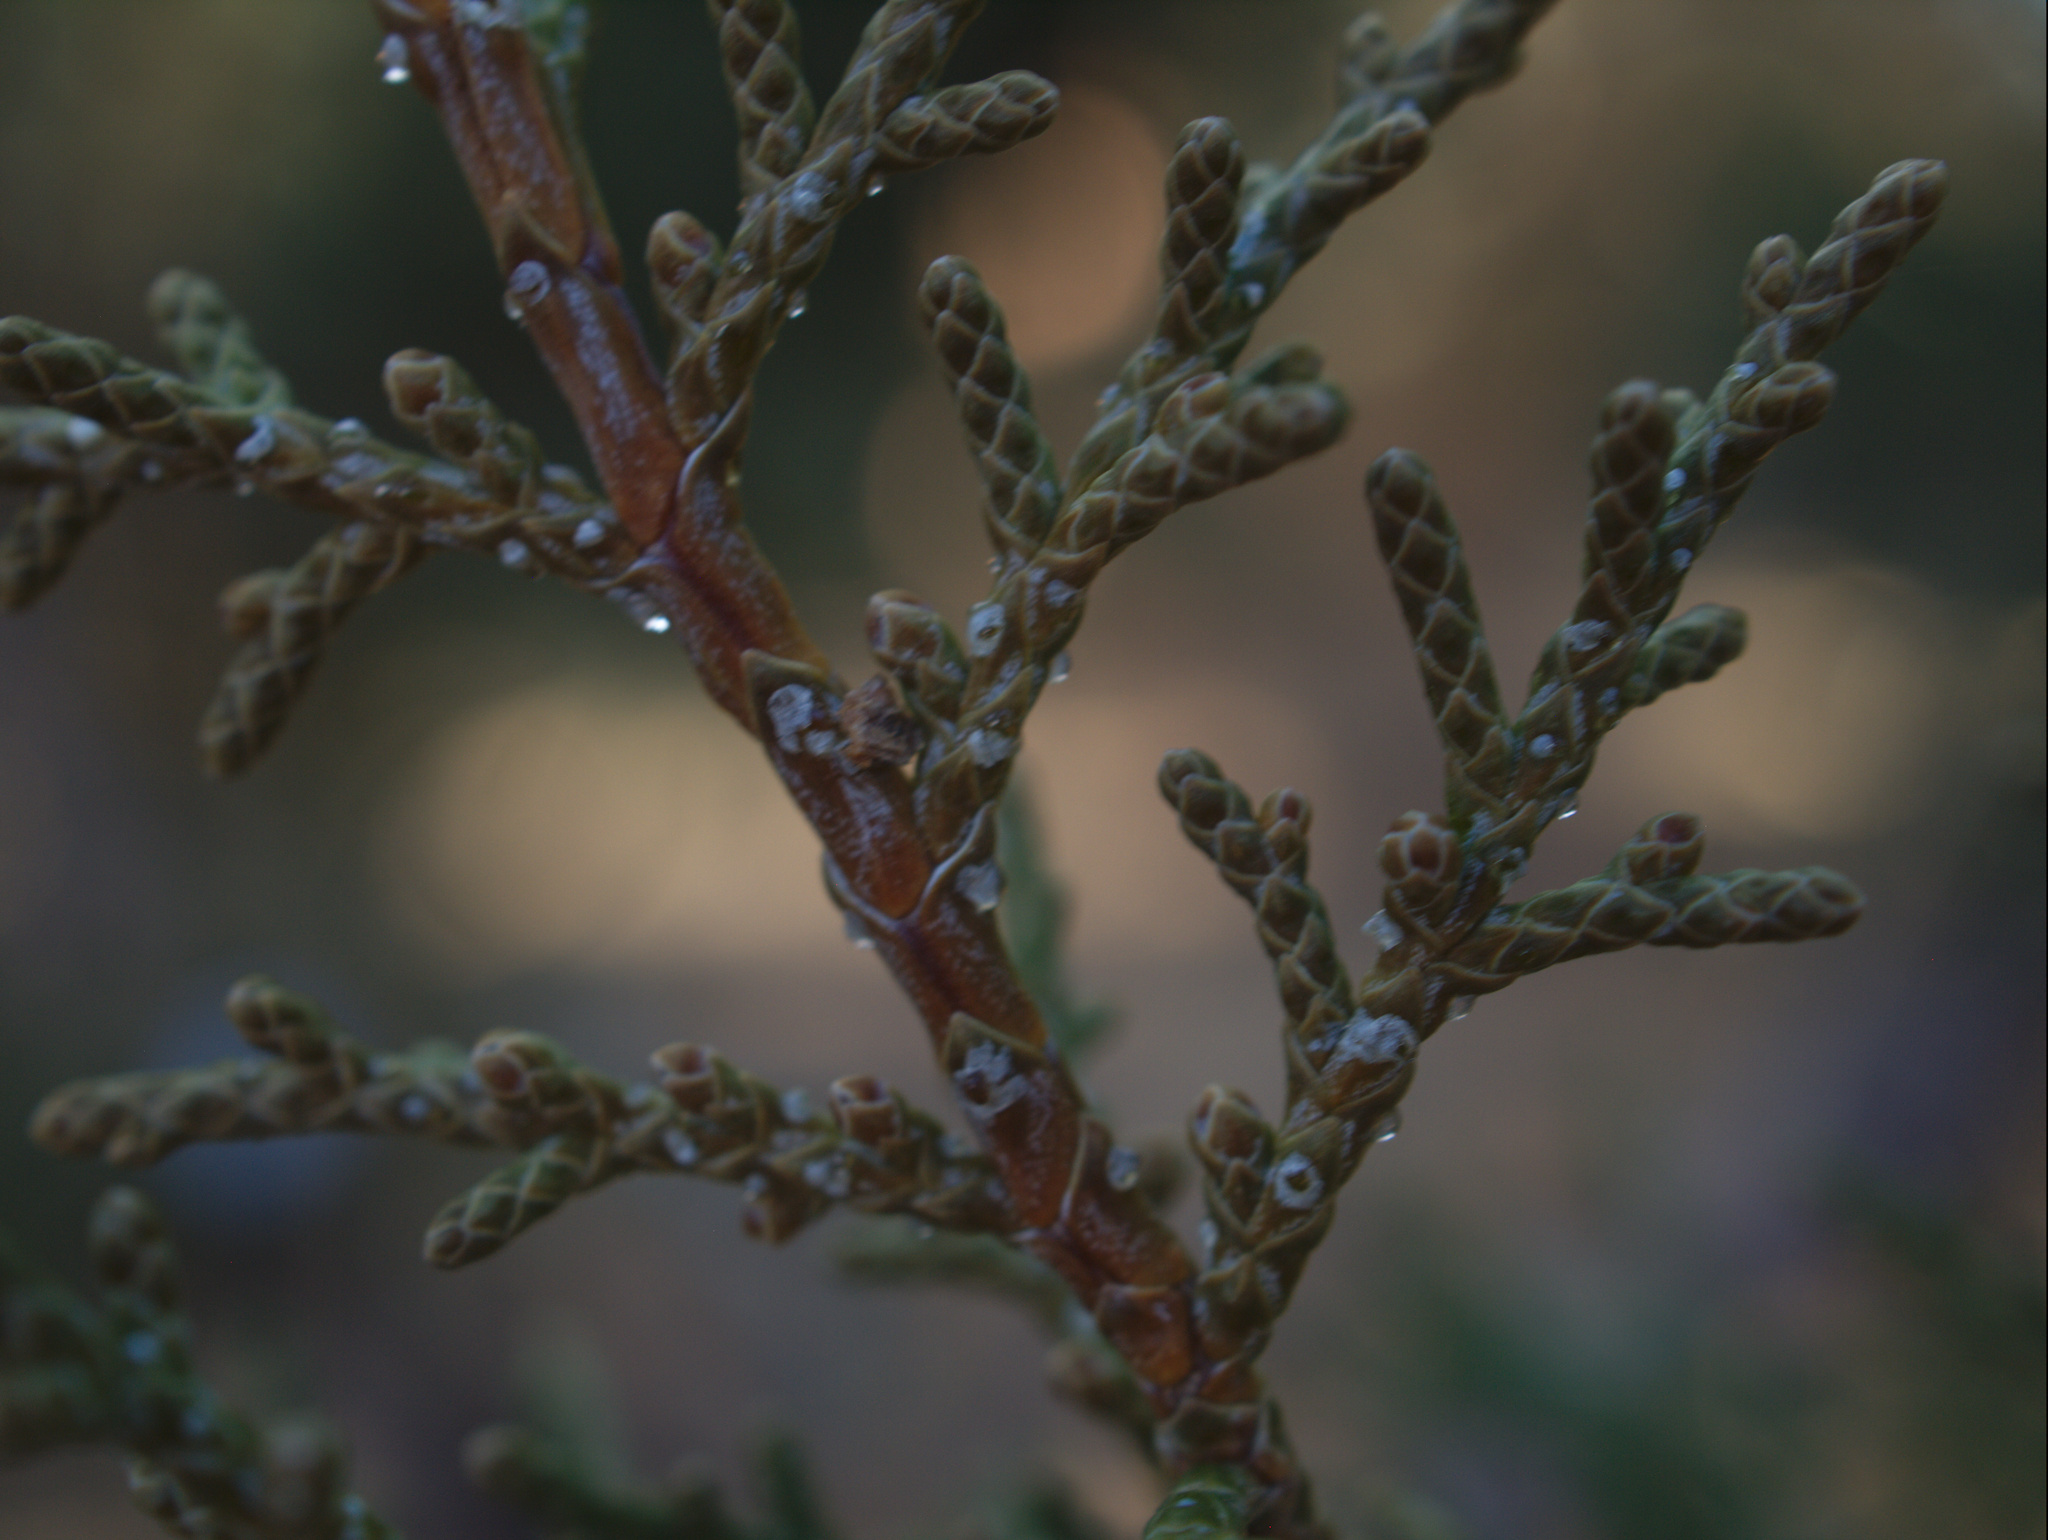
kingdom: Plantae
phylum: Tracheophyta
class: Pinopsida
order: Pinales
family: Cupressaceae
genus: Juniperus
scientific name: Juniperus occidentalis
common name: Western juniper
